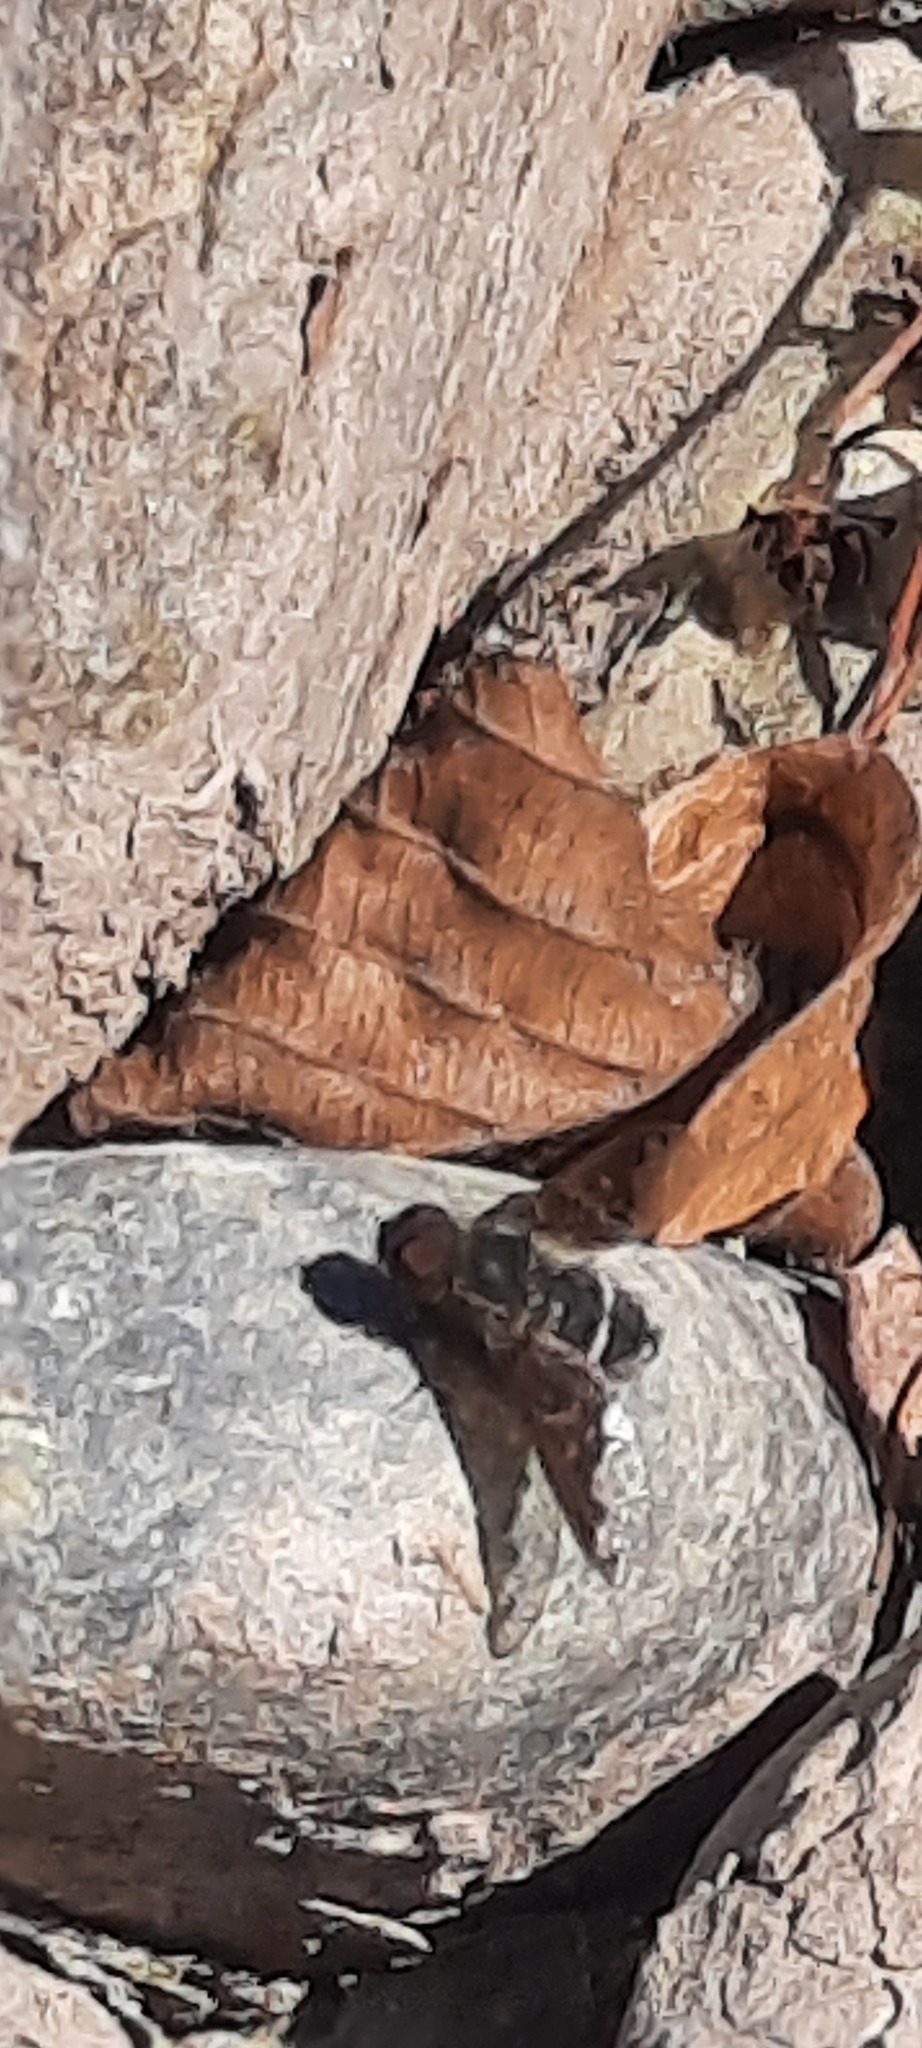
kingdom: Animalia
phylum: Arthropoda
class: Insecta
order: Diptera
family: Bombyliidae
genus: Hemipenthes
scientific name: Hemipenthes velutina
